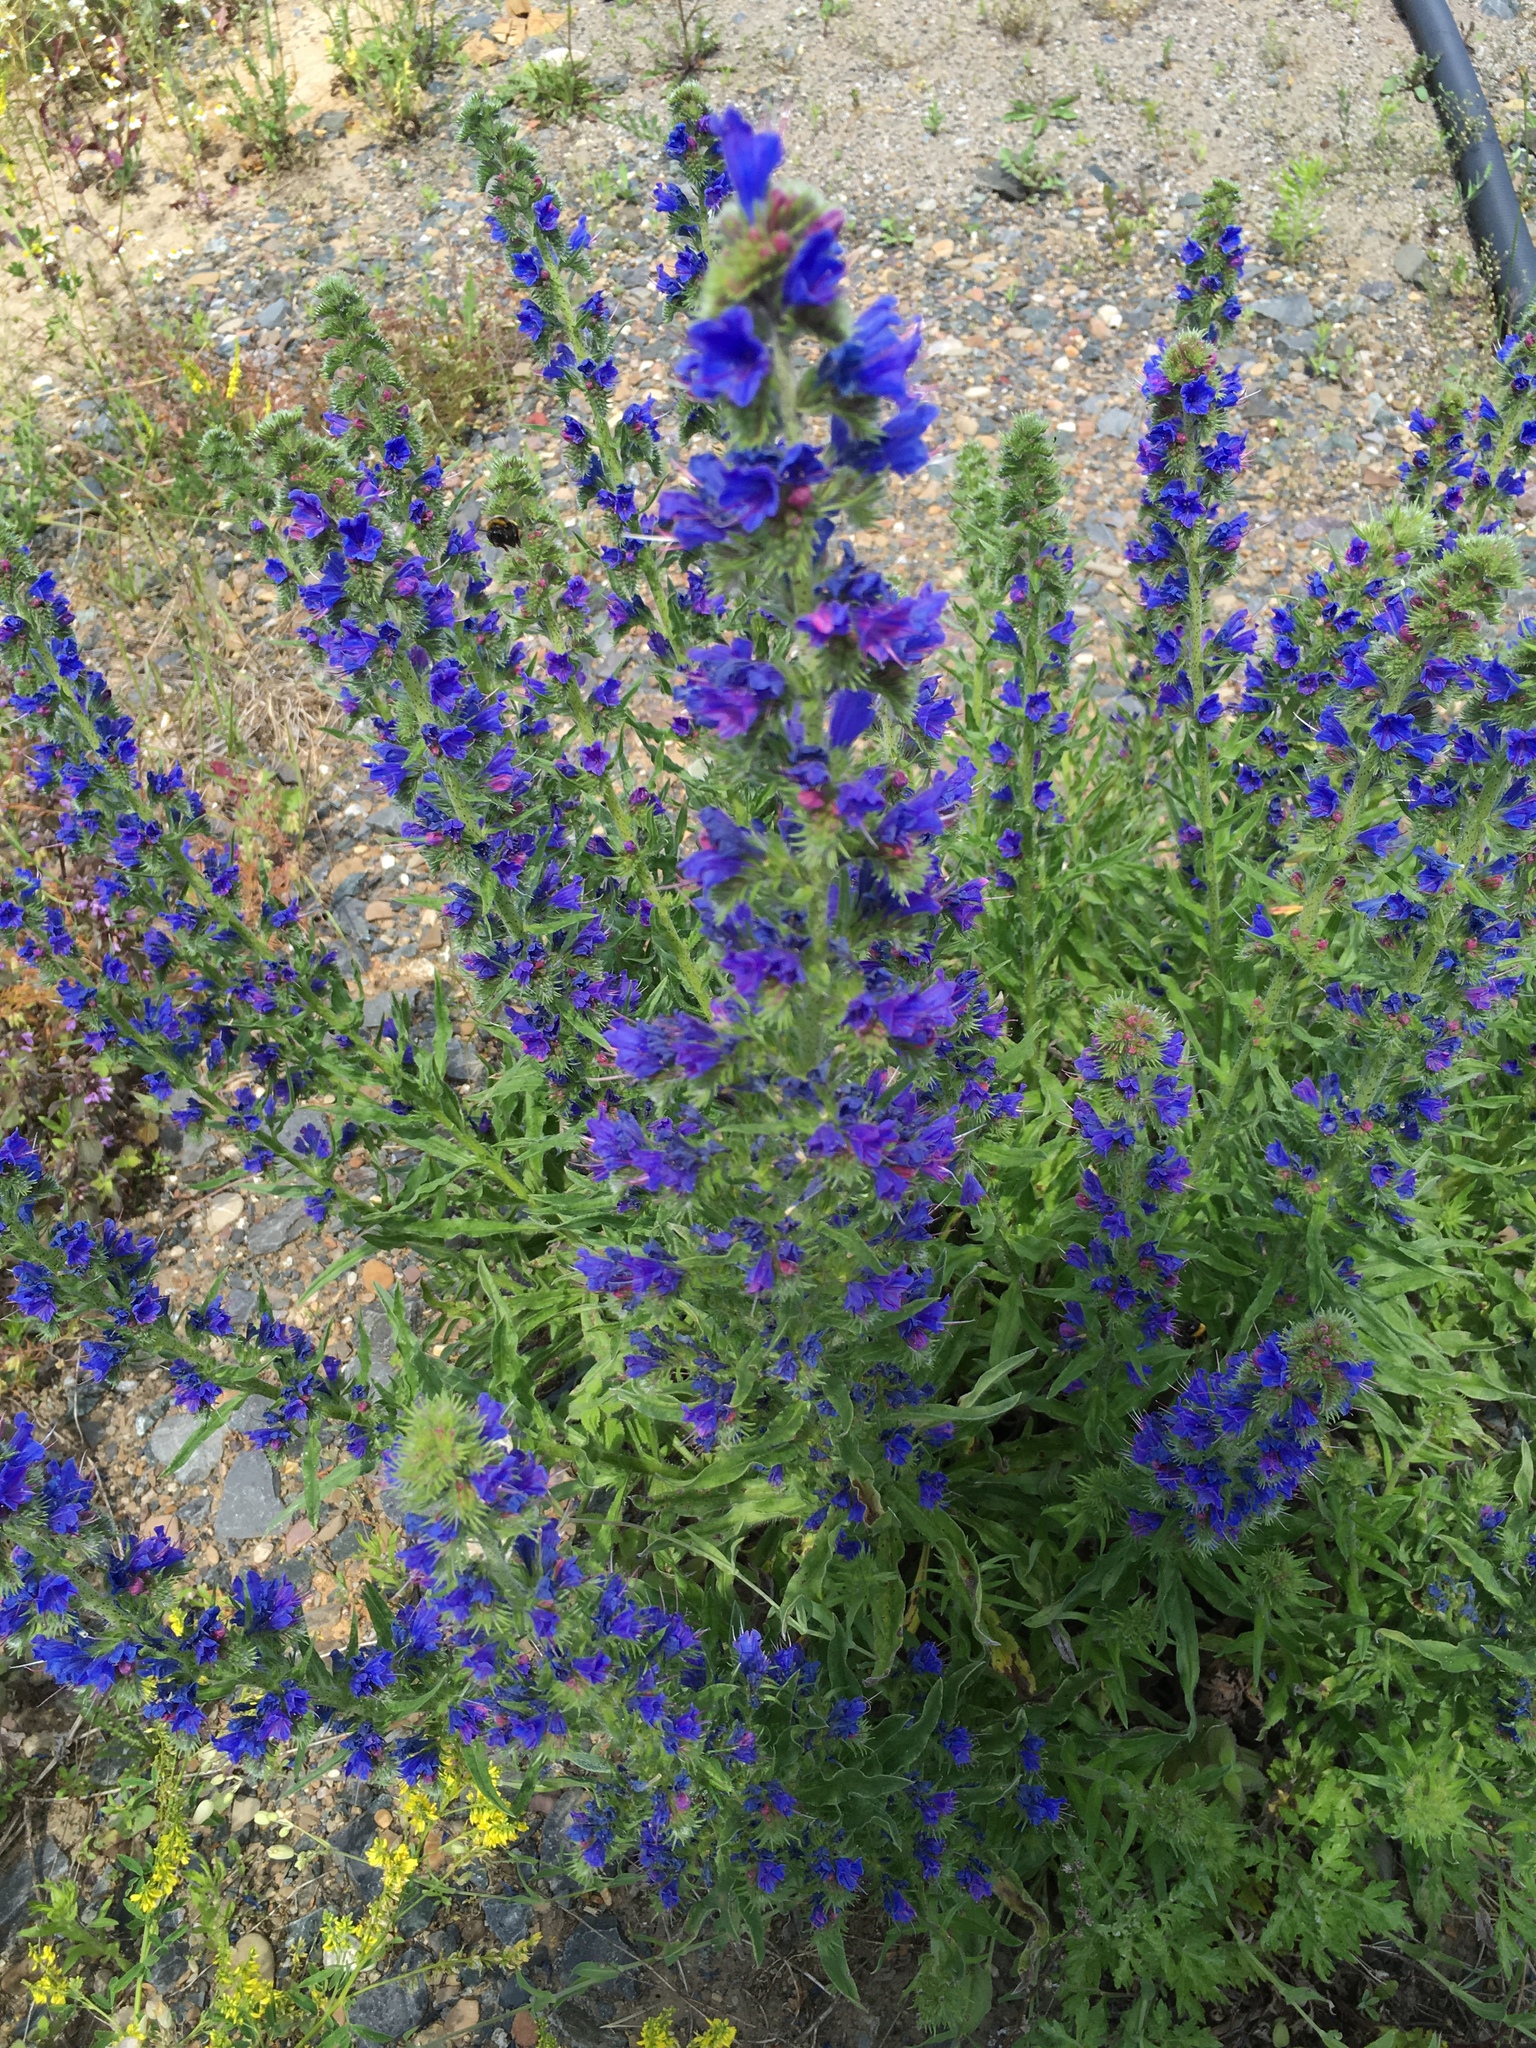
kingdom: Plantae
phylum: Tracheophyta
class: Magnoliopsida
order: Boraginales
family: Boraginaceae
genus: Echium
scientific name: Echium vulgare
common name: Common viper's bugloss
